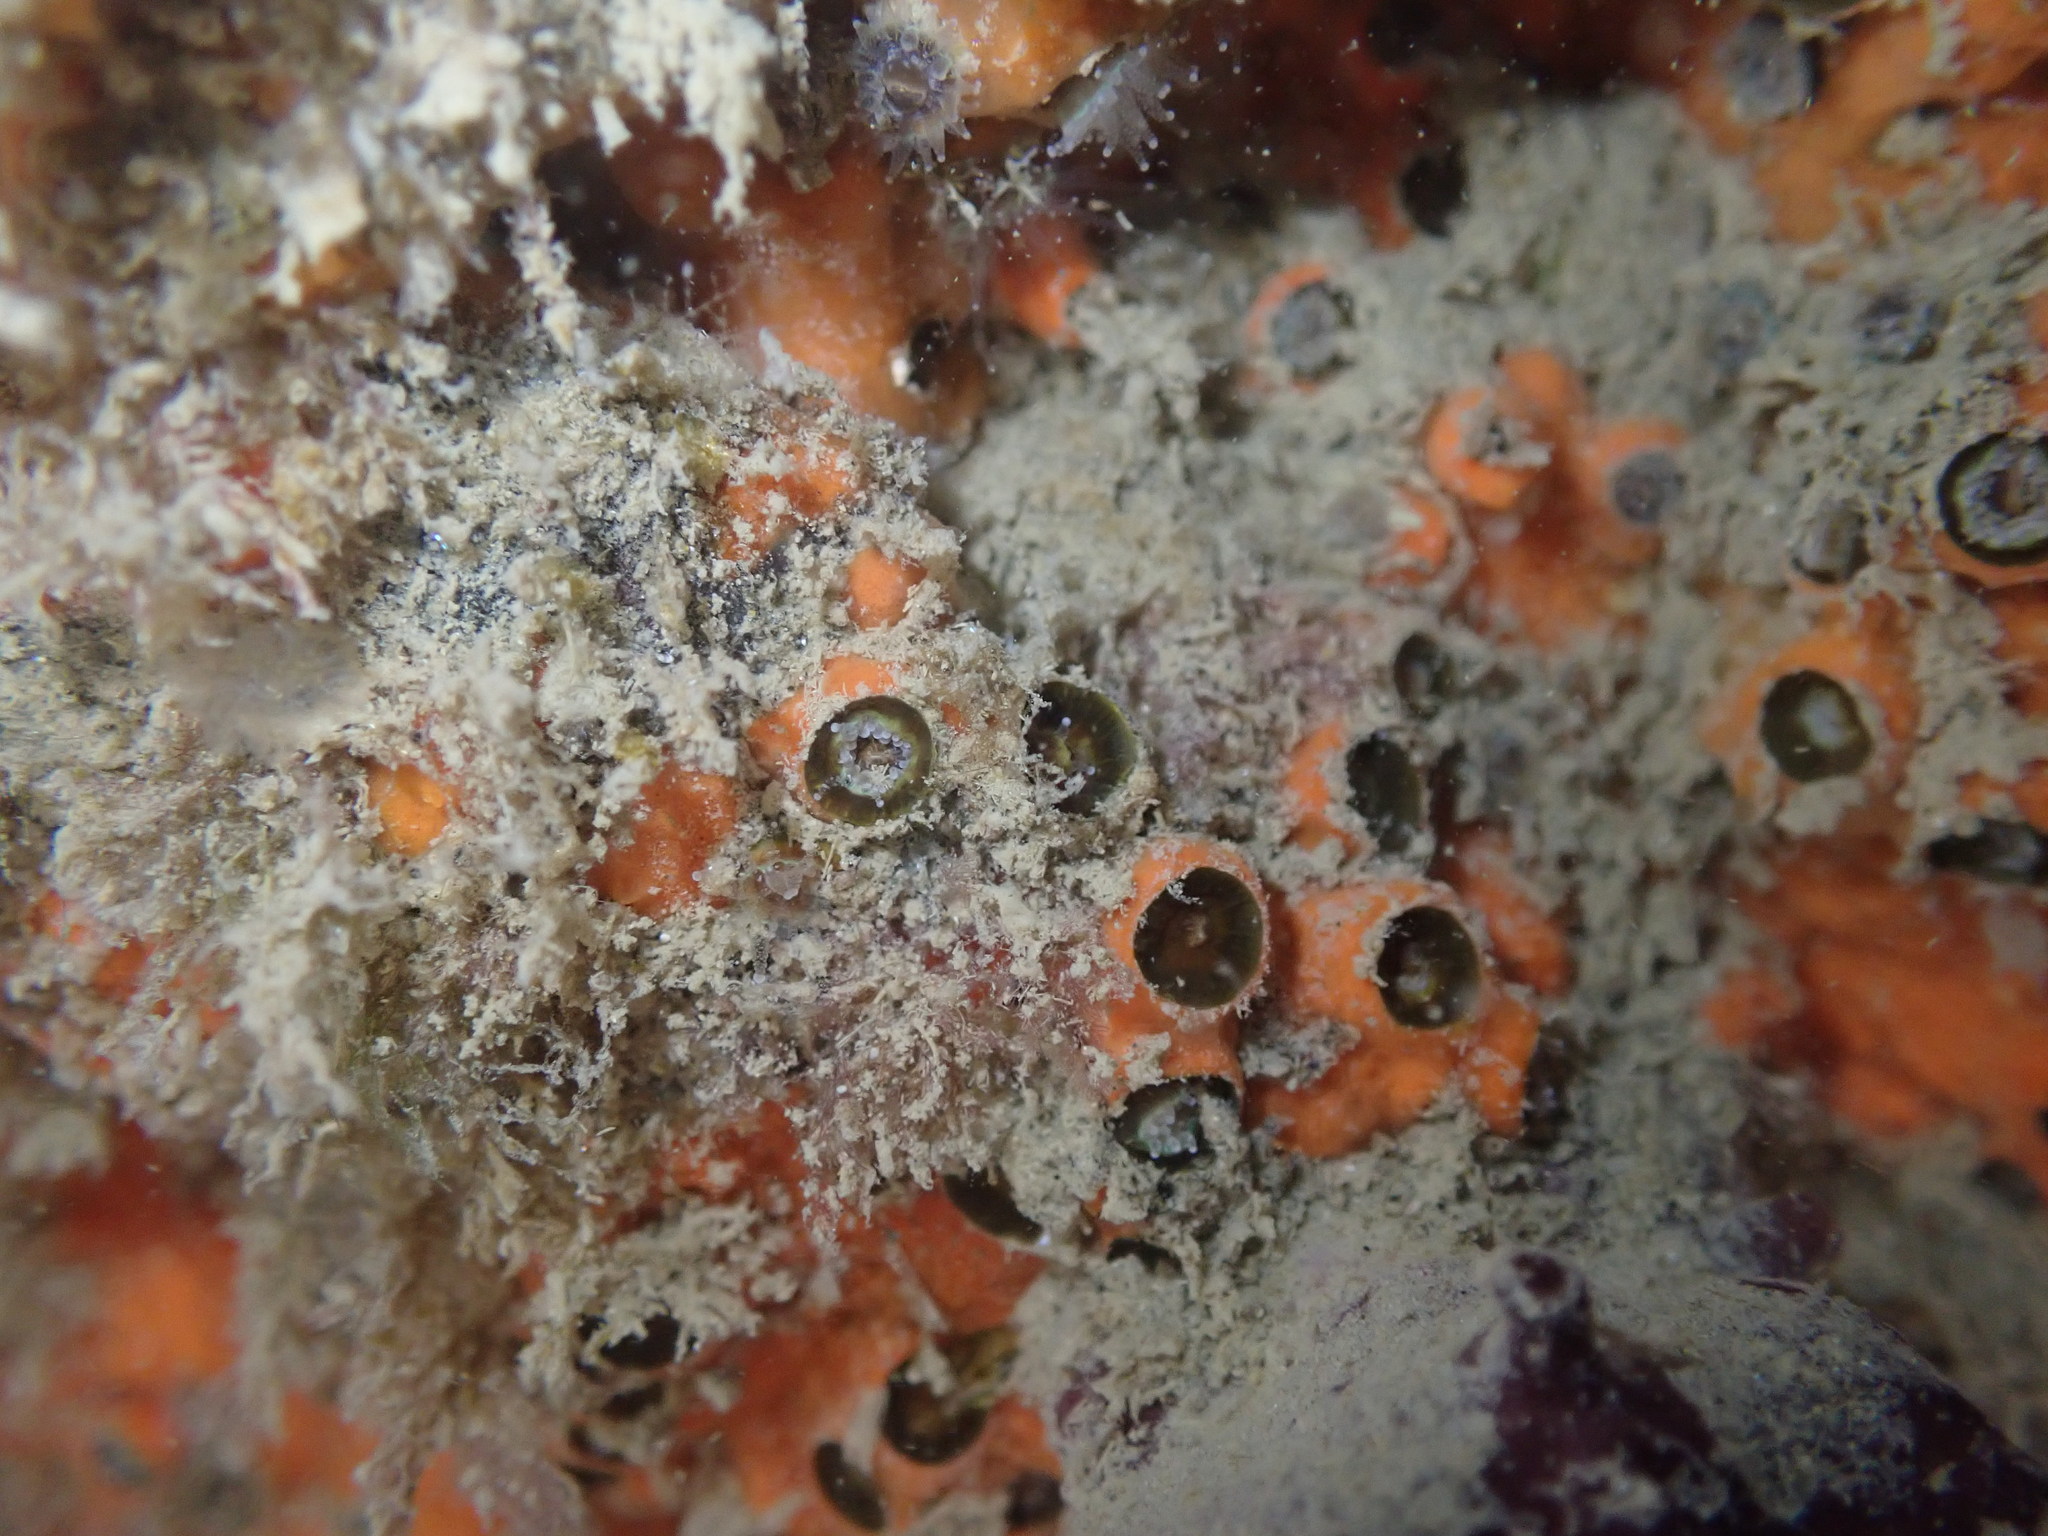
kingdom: Animalia
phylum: Cnidaria
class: Anthozoa
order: Scleractinia
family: Rhizangiidae
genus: Culicia
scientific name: Culicia rubeola
